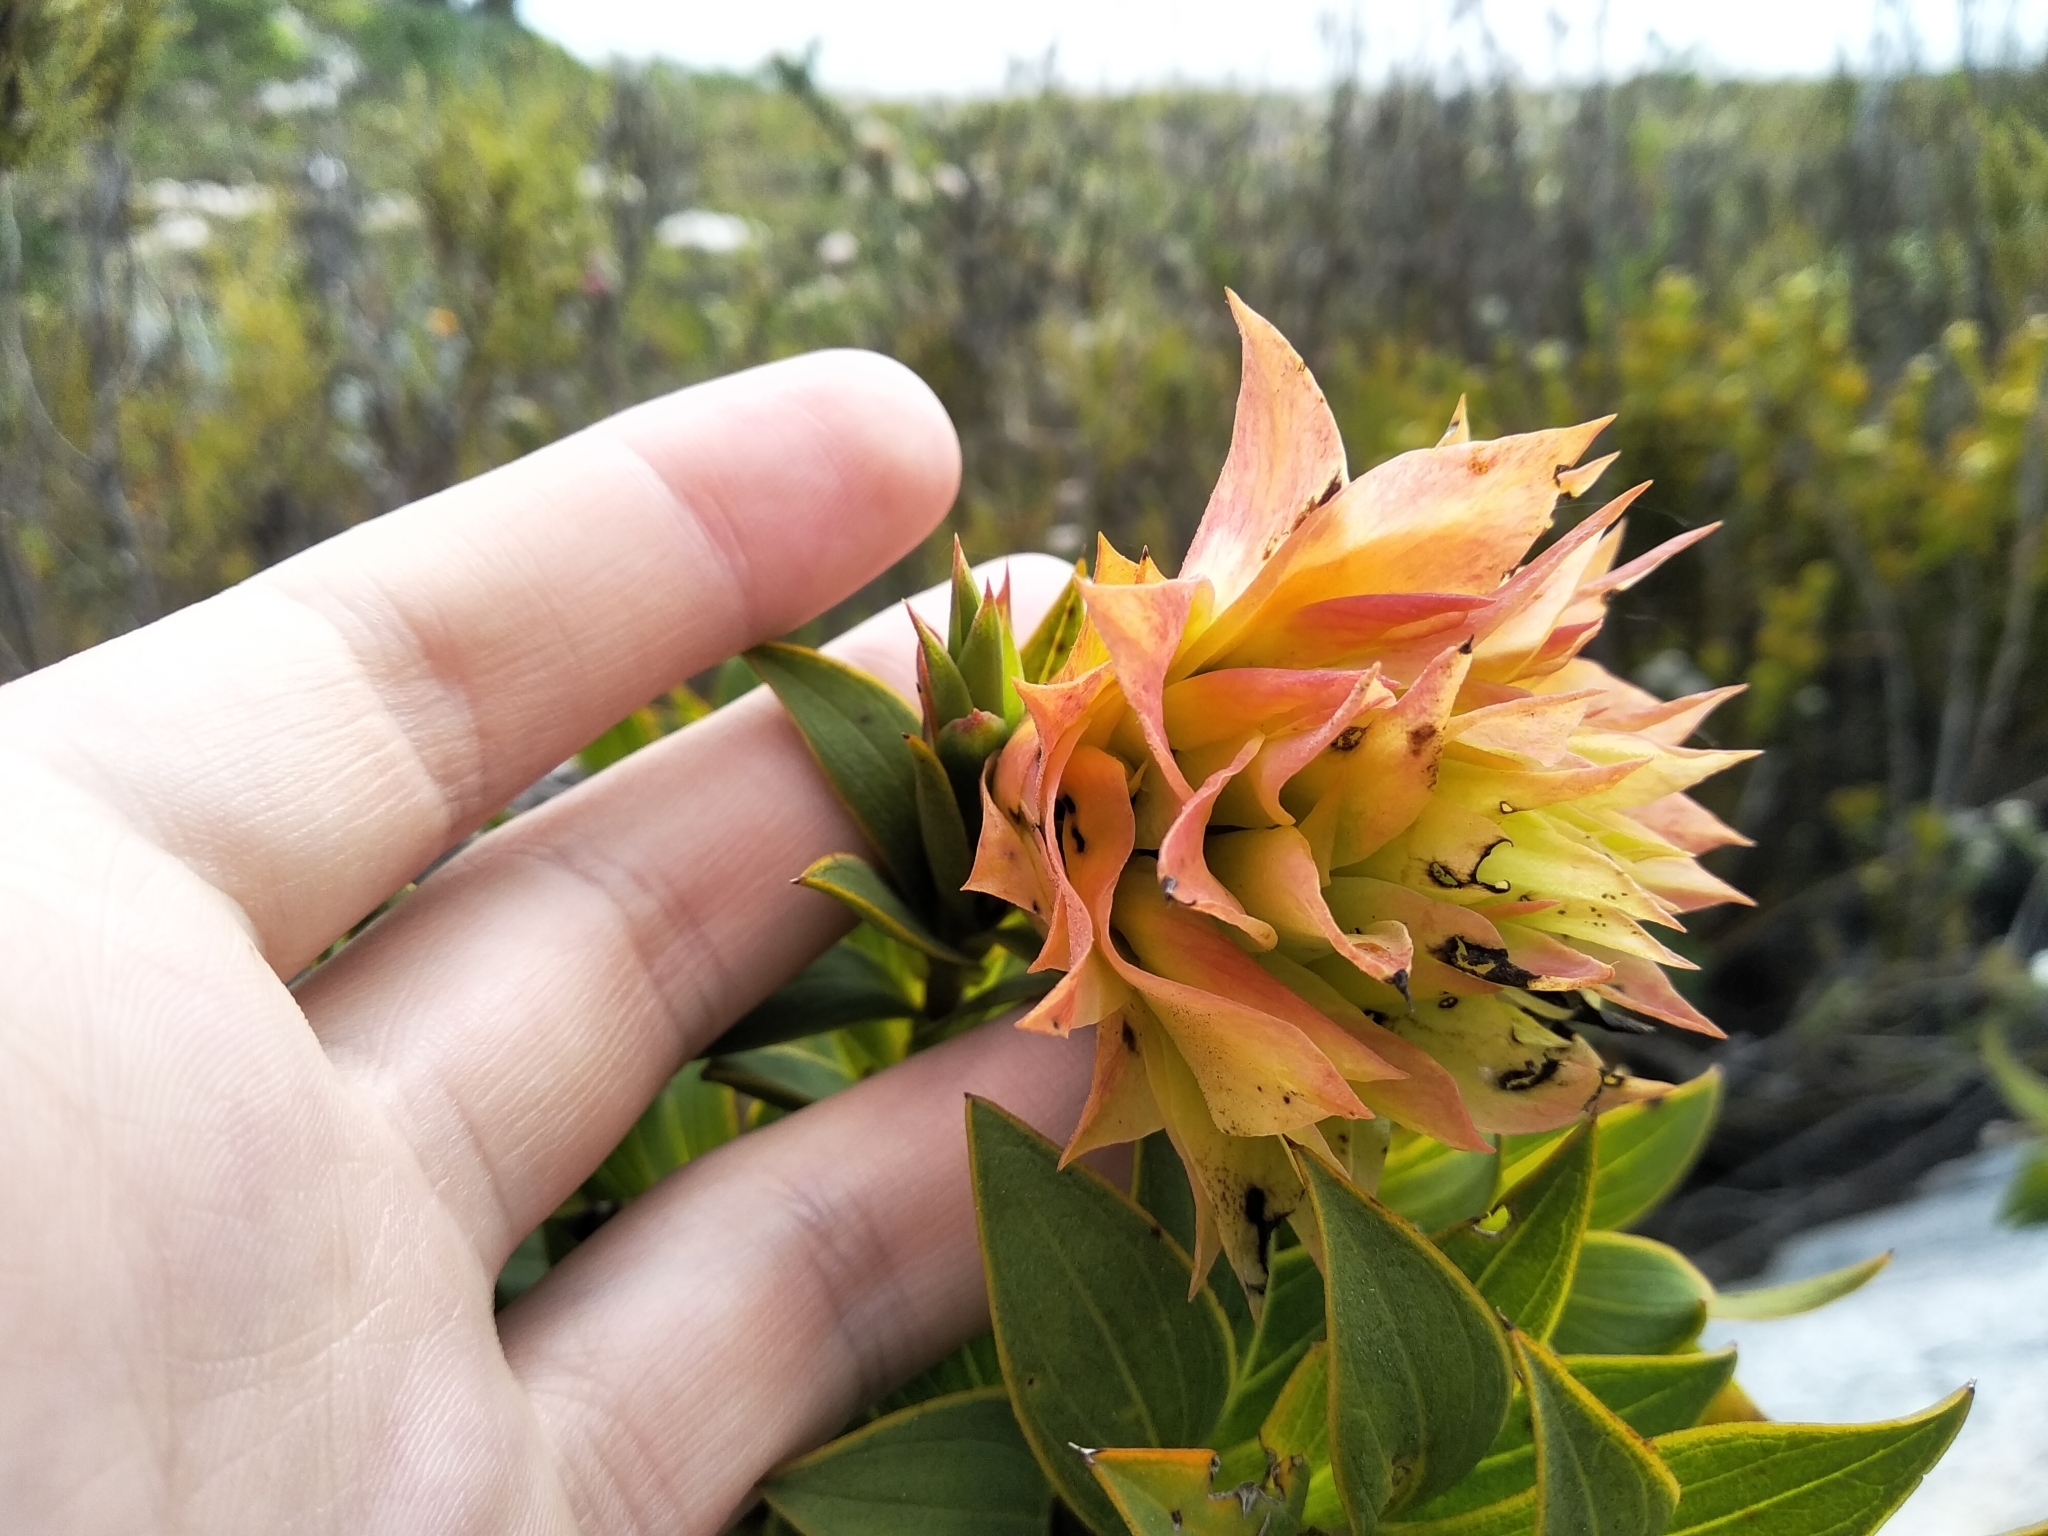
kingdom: Plantae
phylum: Tracheophyta
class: Magnoliopsida
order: Fabales
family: Fabaceae
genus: Liparia
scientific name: Liparia splendens
